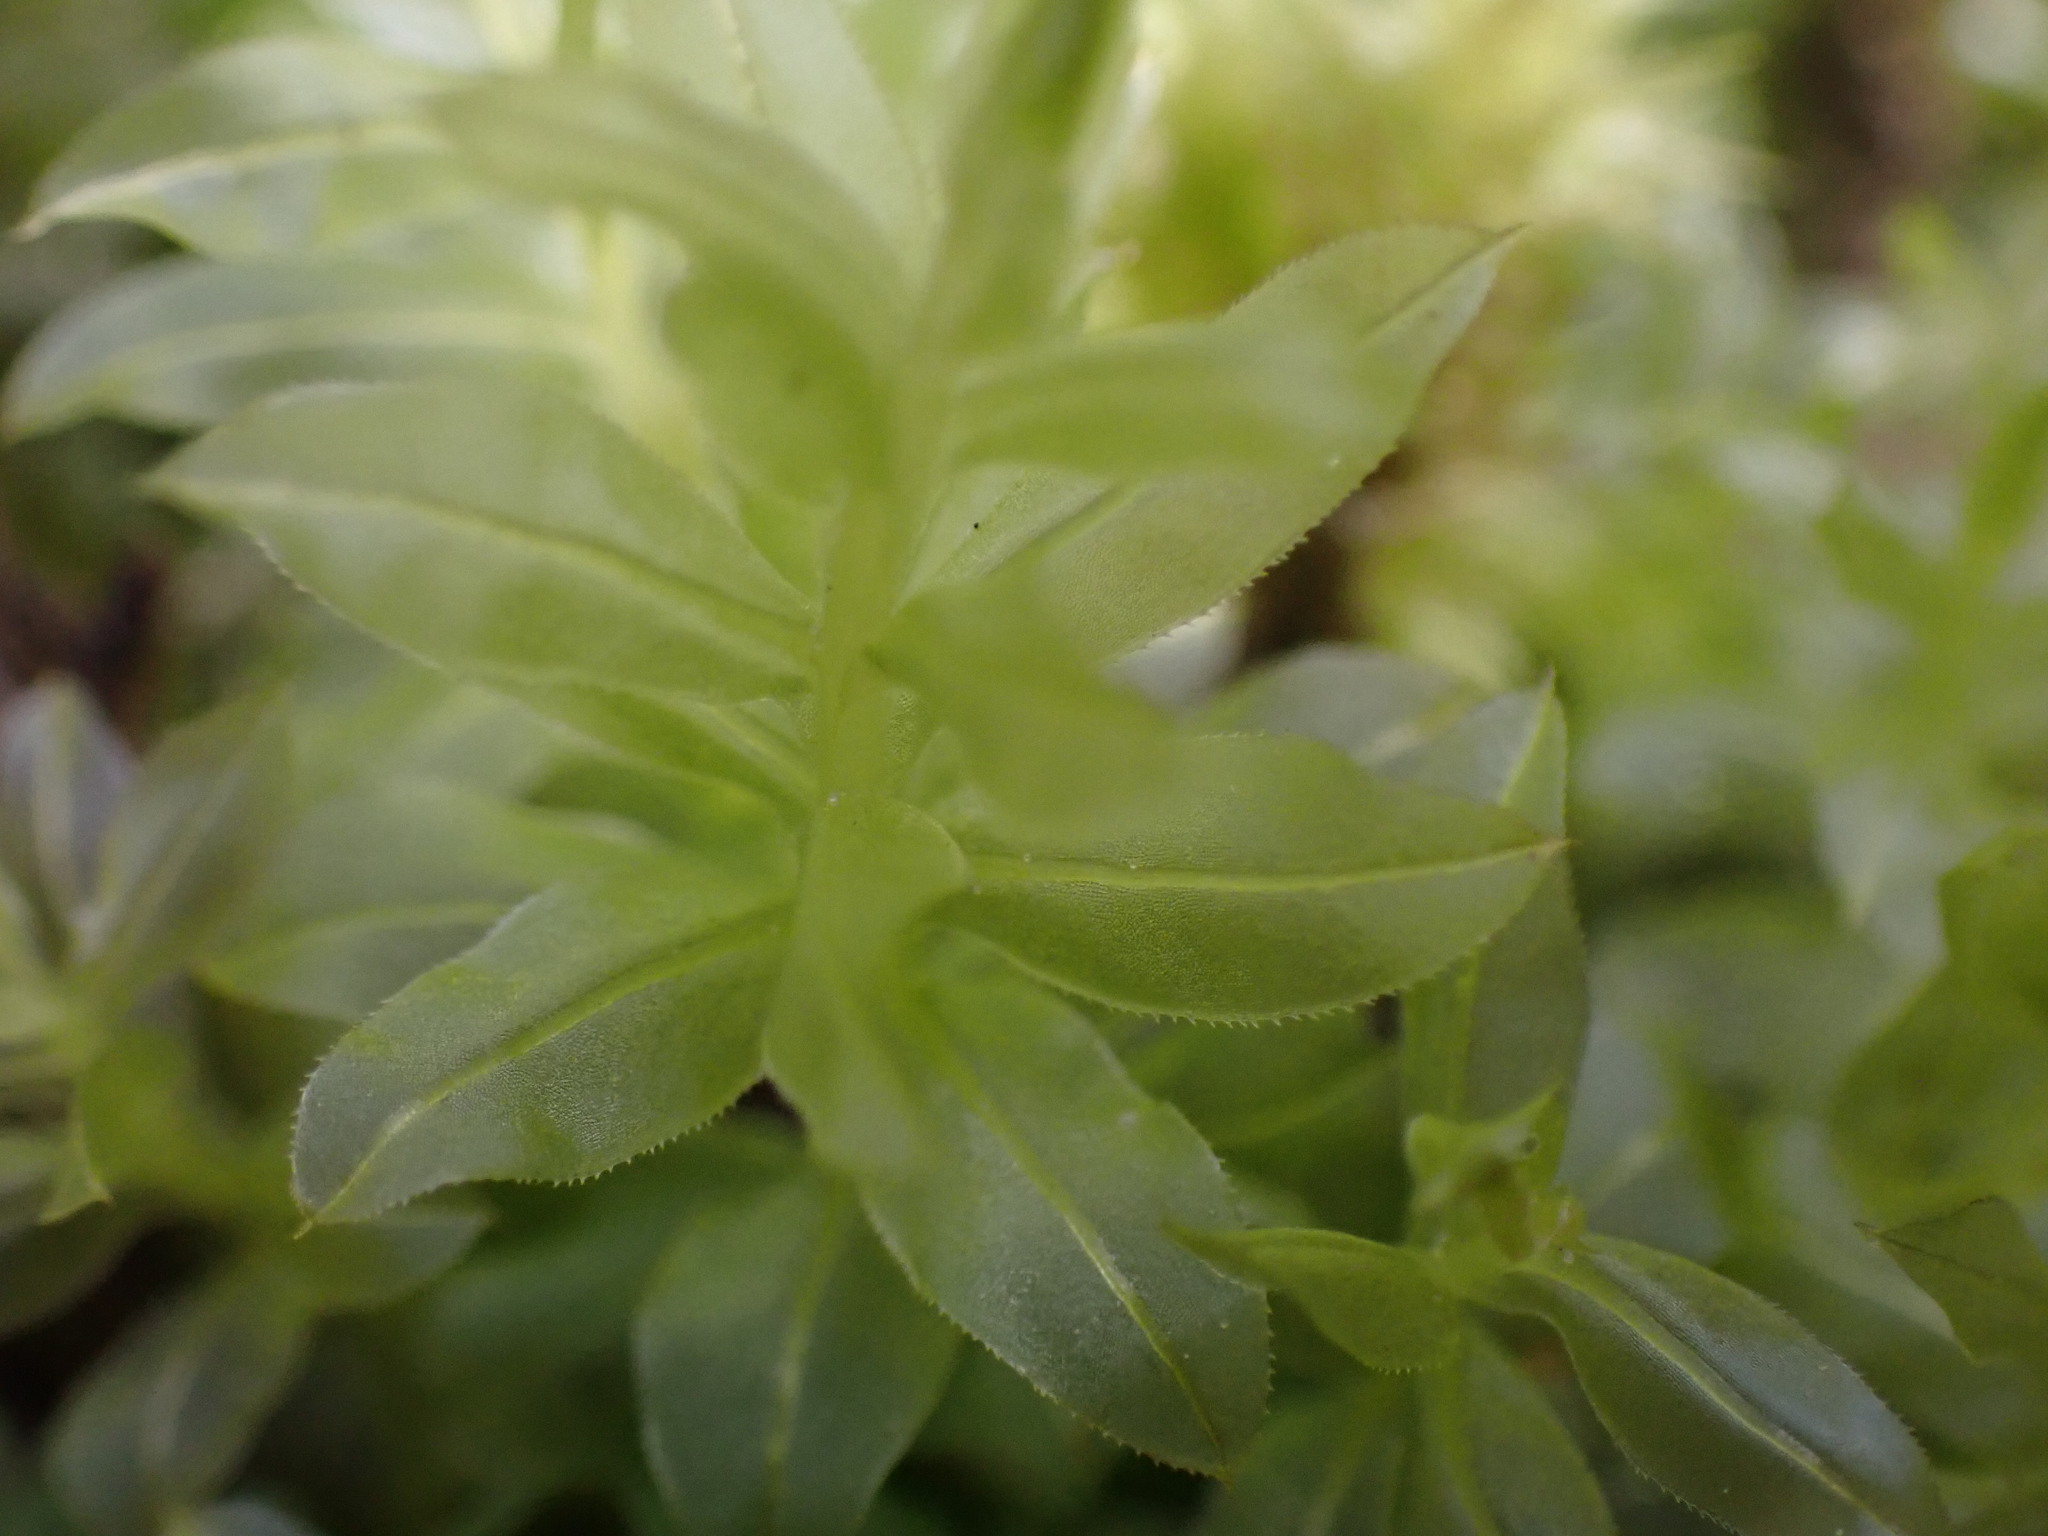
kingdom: Plantae
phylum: Bryophyta
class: Bryopsida
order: Bryales
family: Mniaceae
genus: Plagiomnium
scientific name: Plagiomnium insigne
